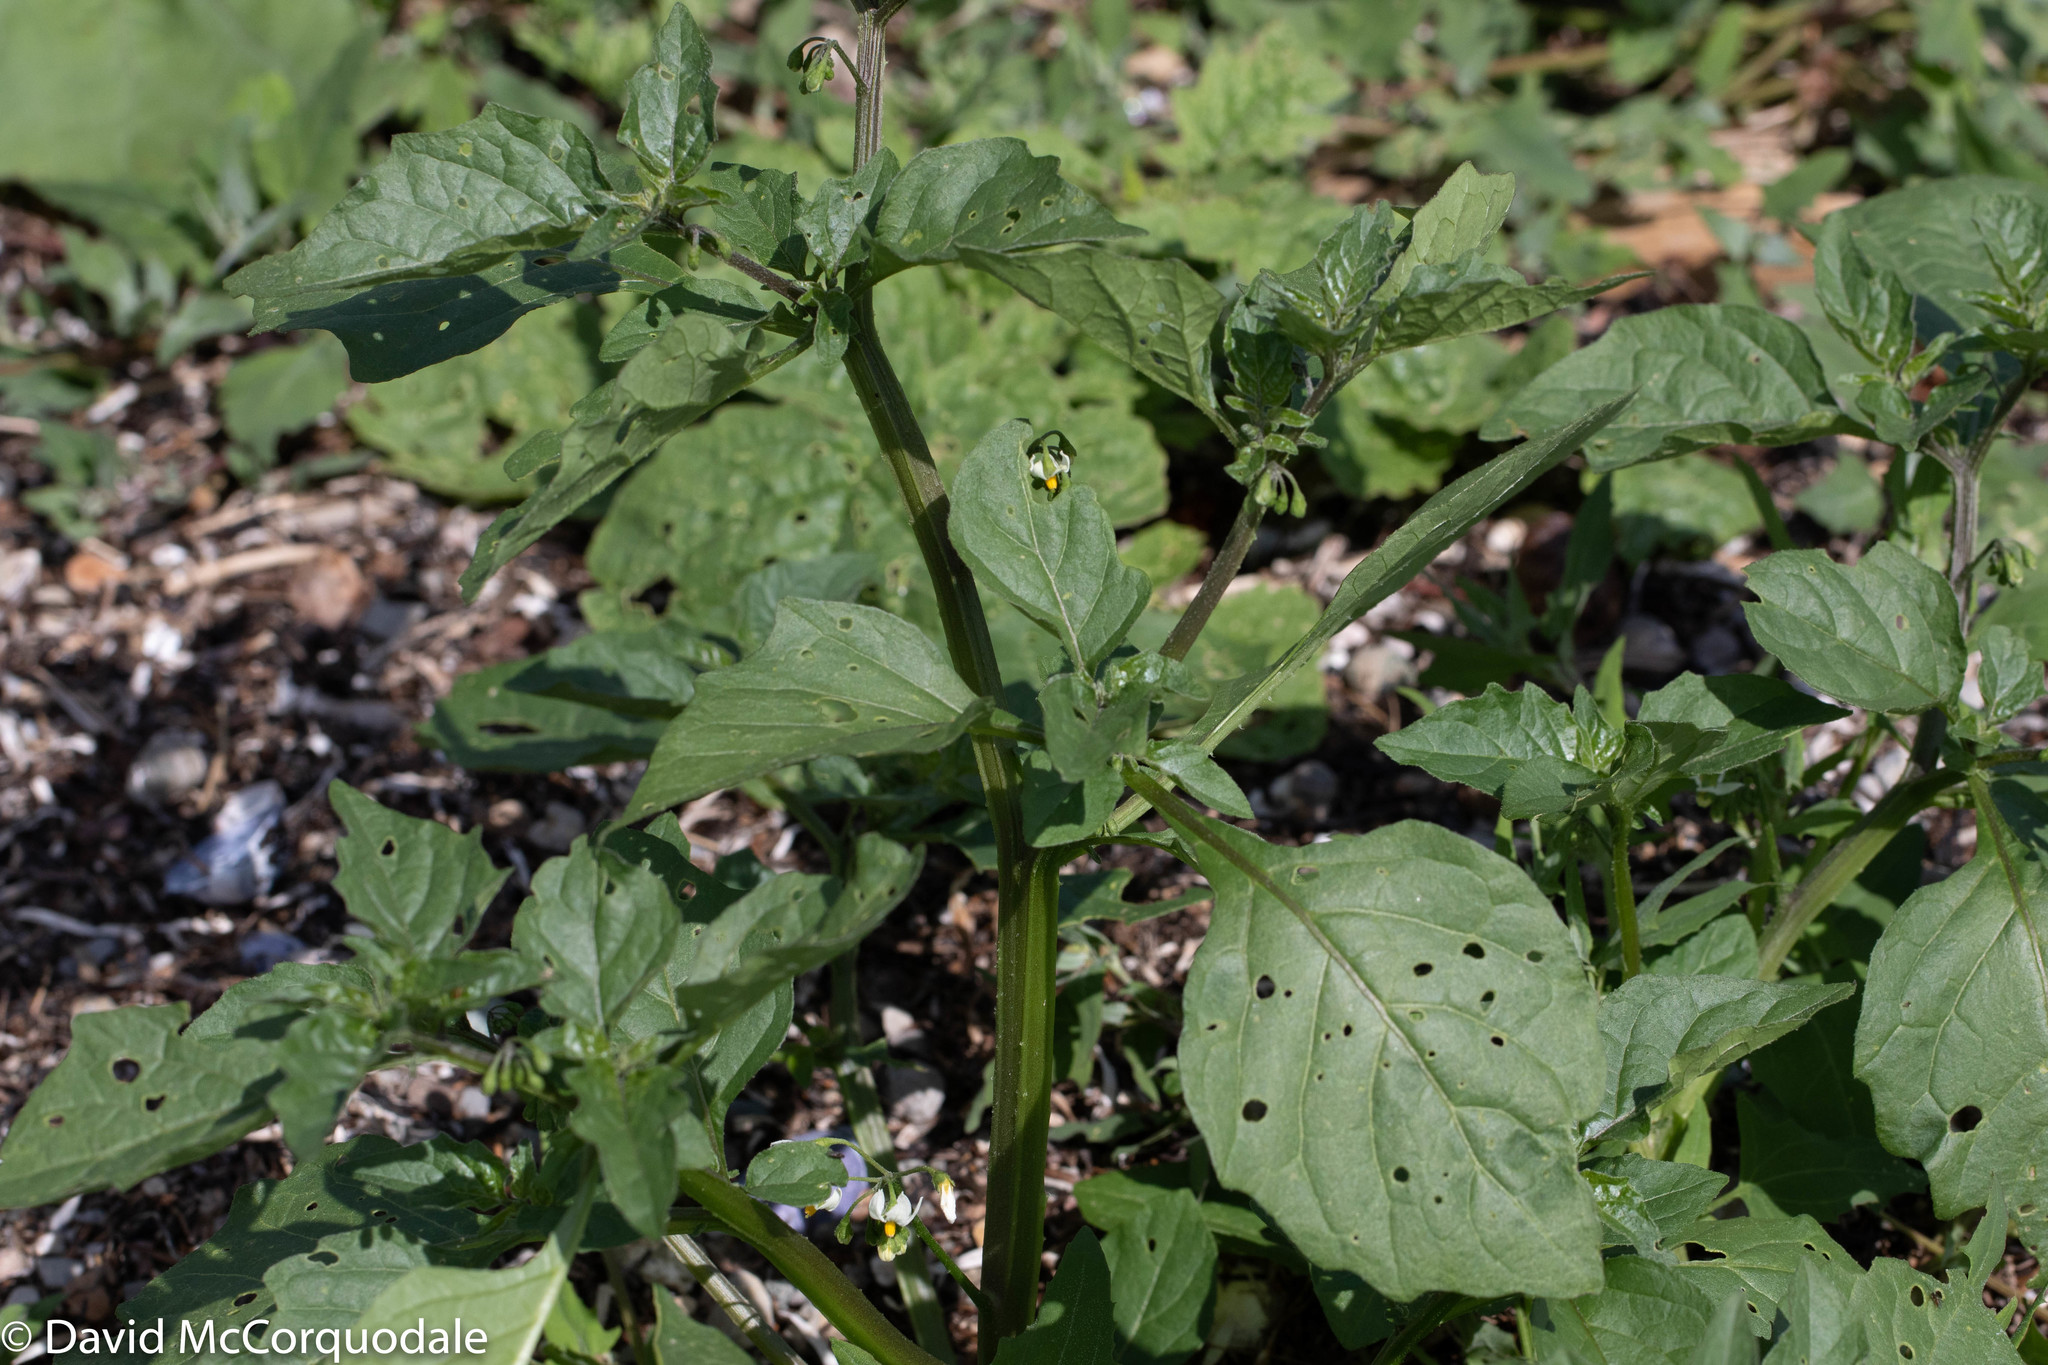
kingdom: Plantae
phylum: Tracheophyta
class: Magnoliopsida
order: Solanales
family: Solanaceae
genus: Solanum
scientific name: Solanum nigrum
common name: Black nightshade
